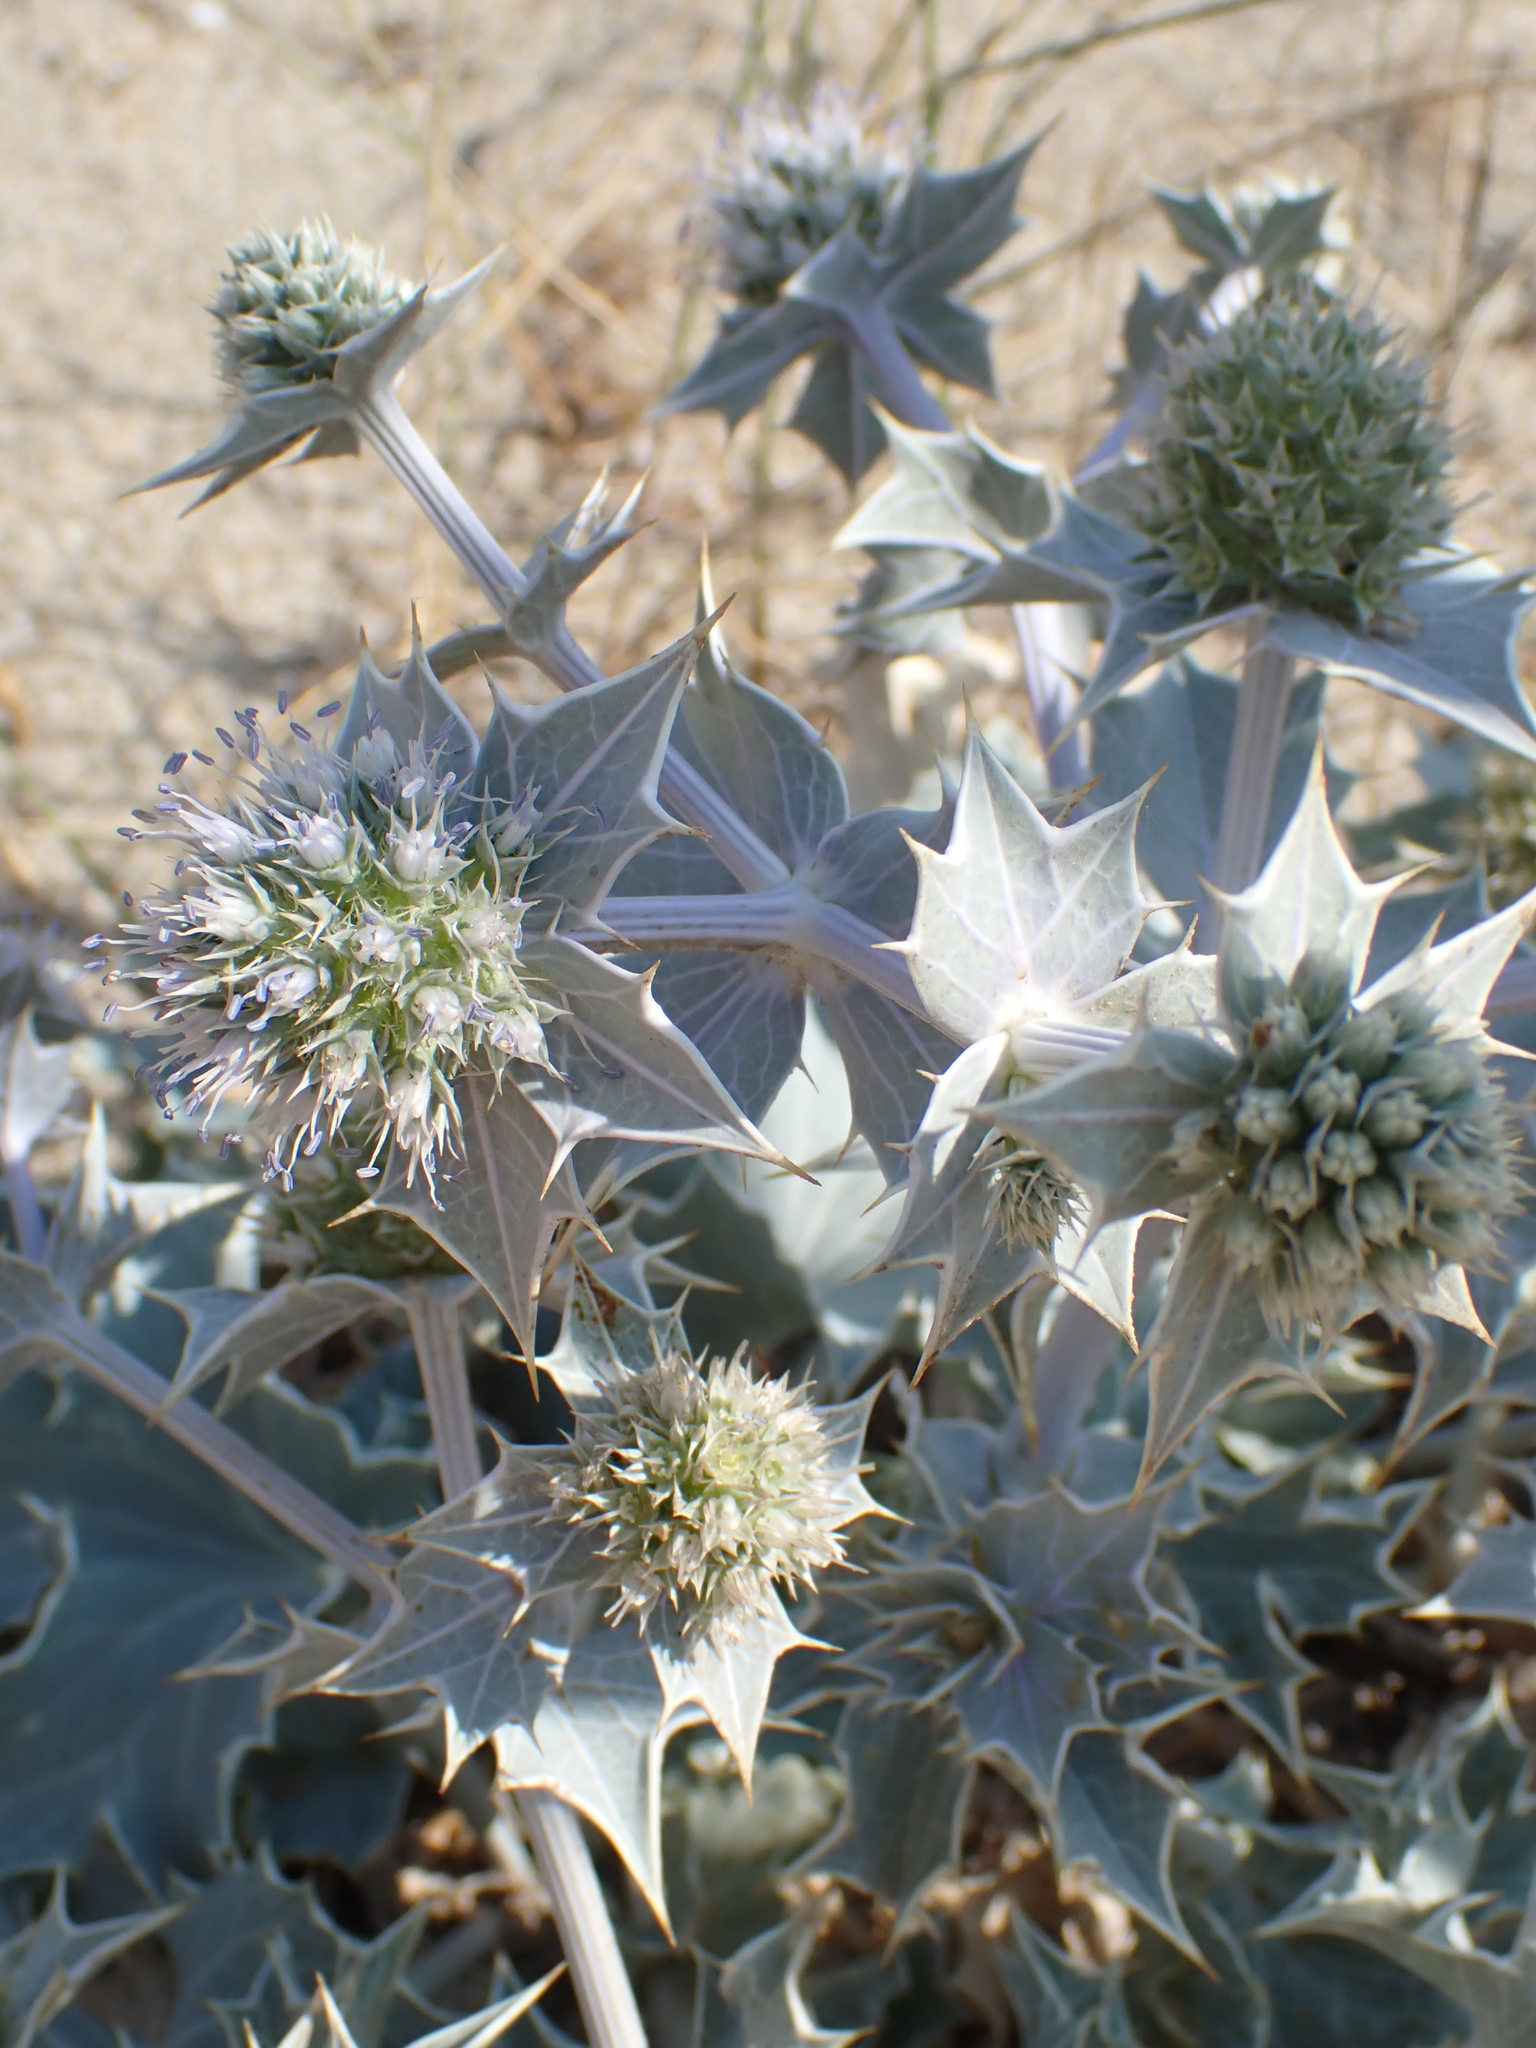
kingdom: Plantae
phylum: Tracheophyta
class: Magnoliopsida
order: Apiales
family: Apiaceae
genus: Eryngium
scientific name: Eryngium maritimum
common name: Sea-holly
